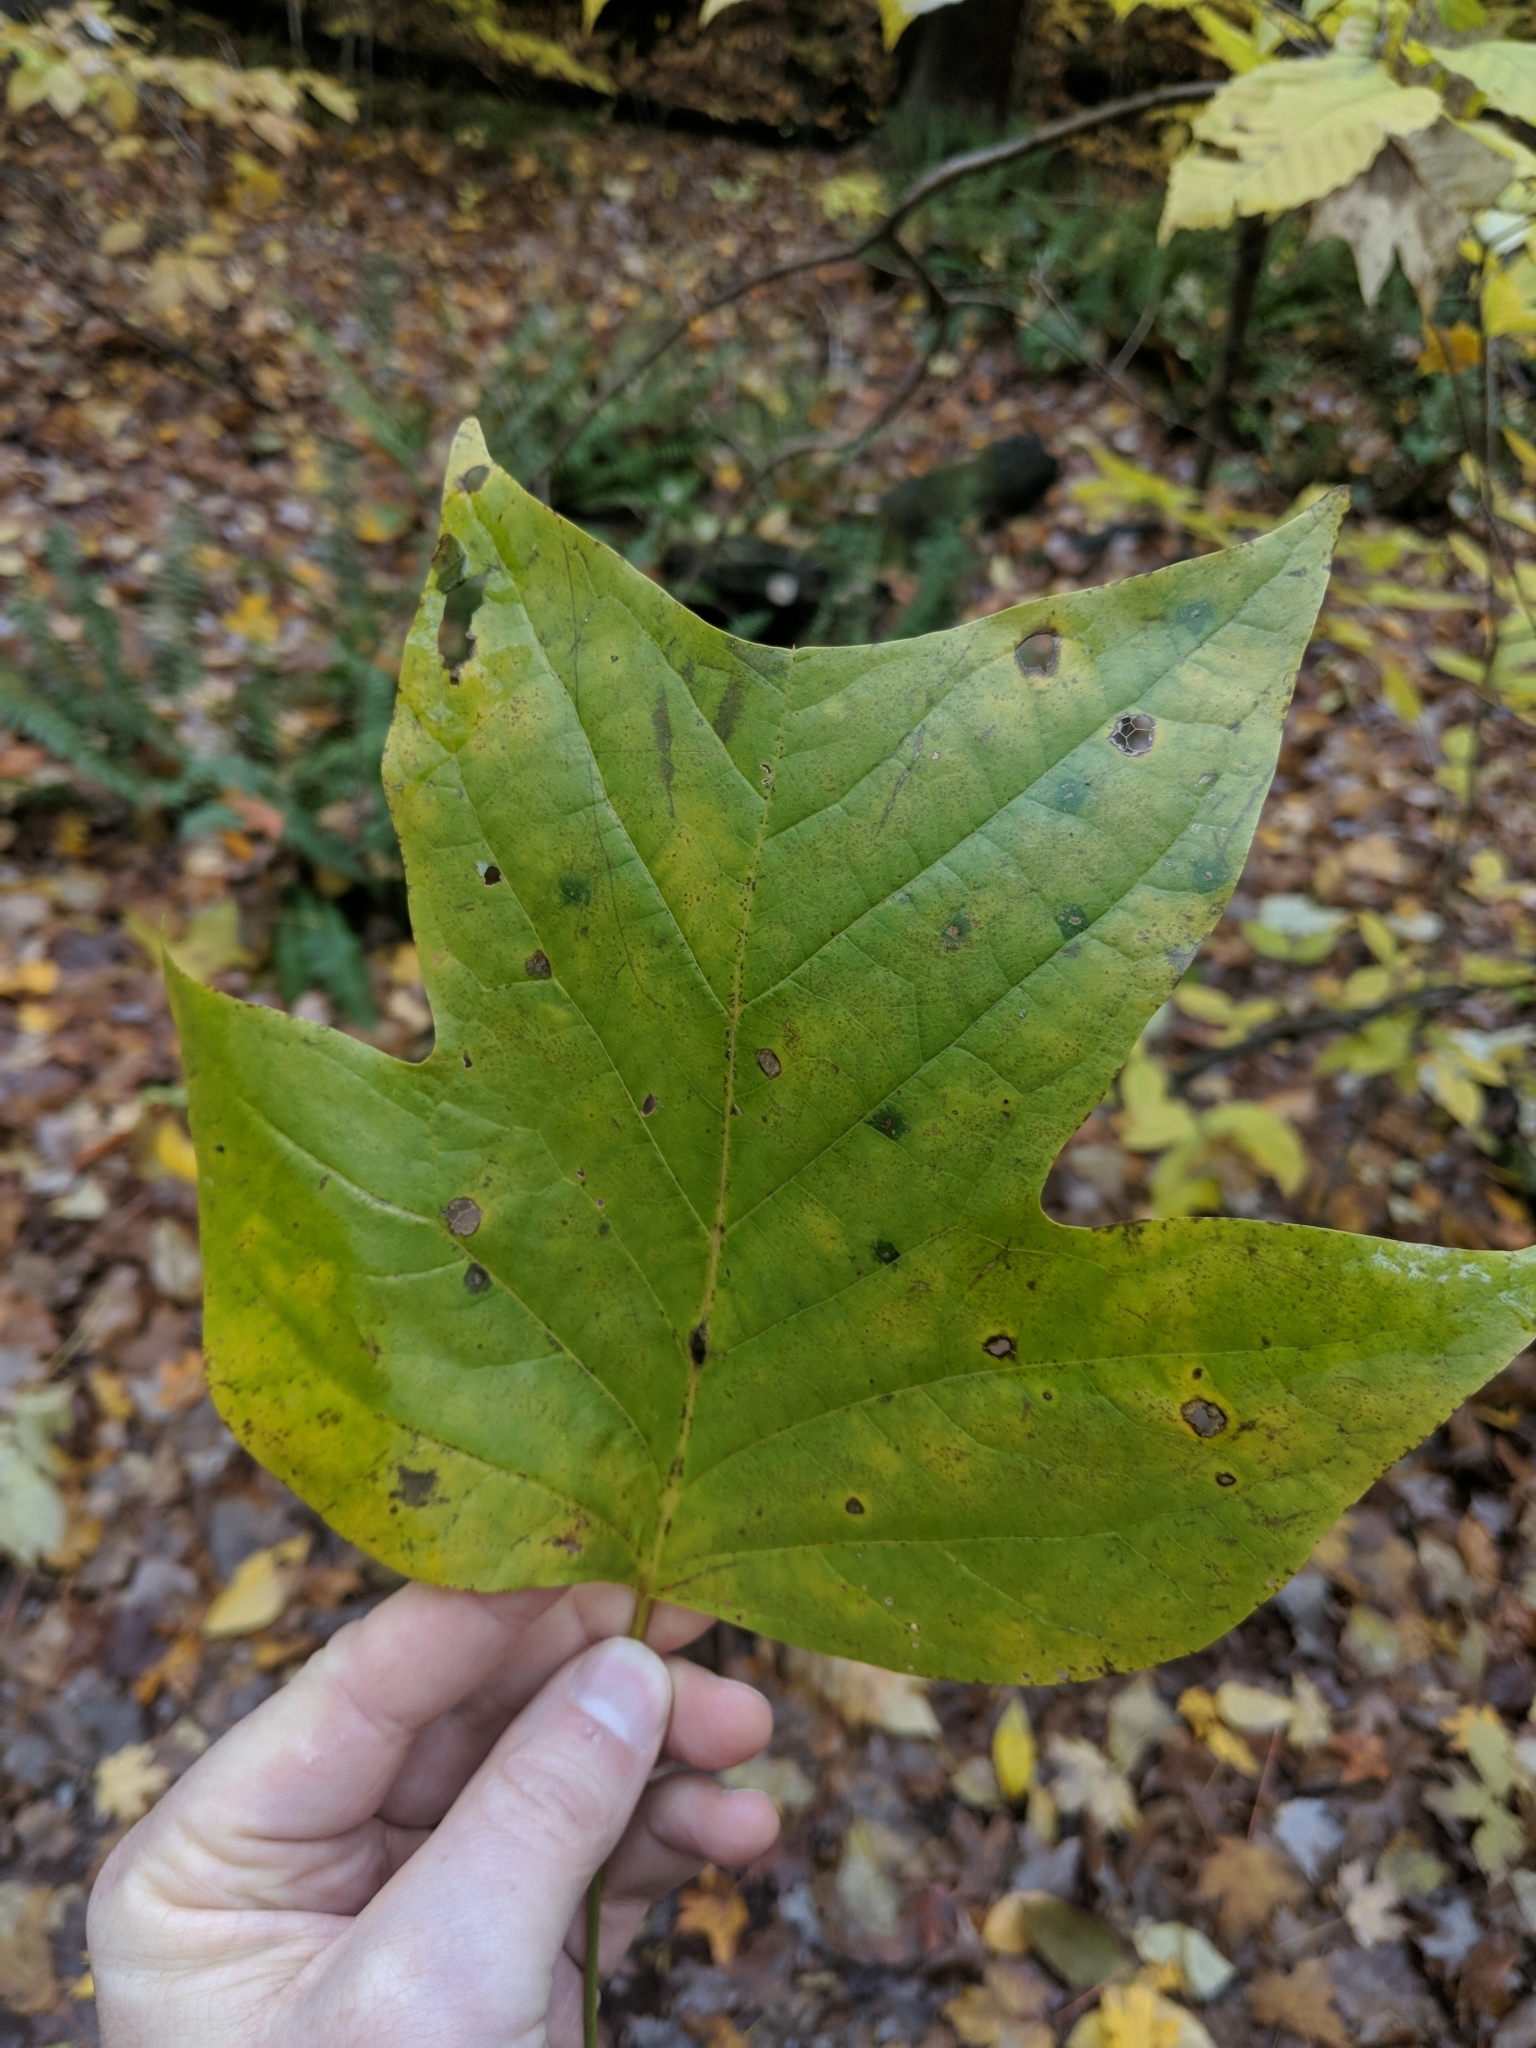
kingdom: Plantae
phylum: Tracheophyta
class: Magnoliopsida
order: Magnoliales
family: Magnoliaceae
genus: Liriodendron
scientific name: Liriodendron tulipifera
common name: Tulip tree
